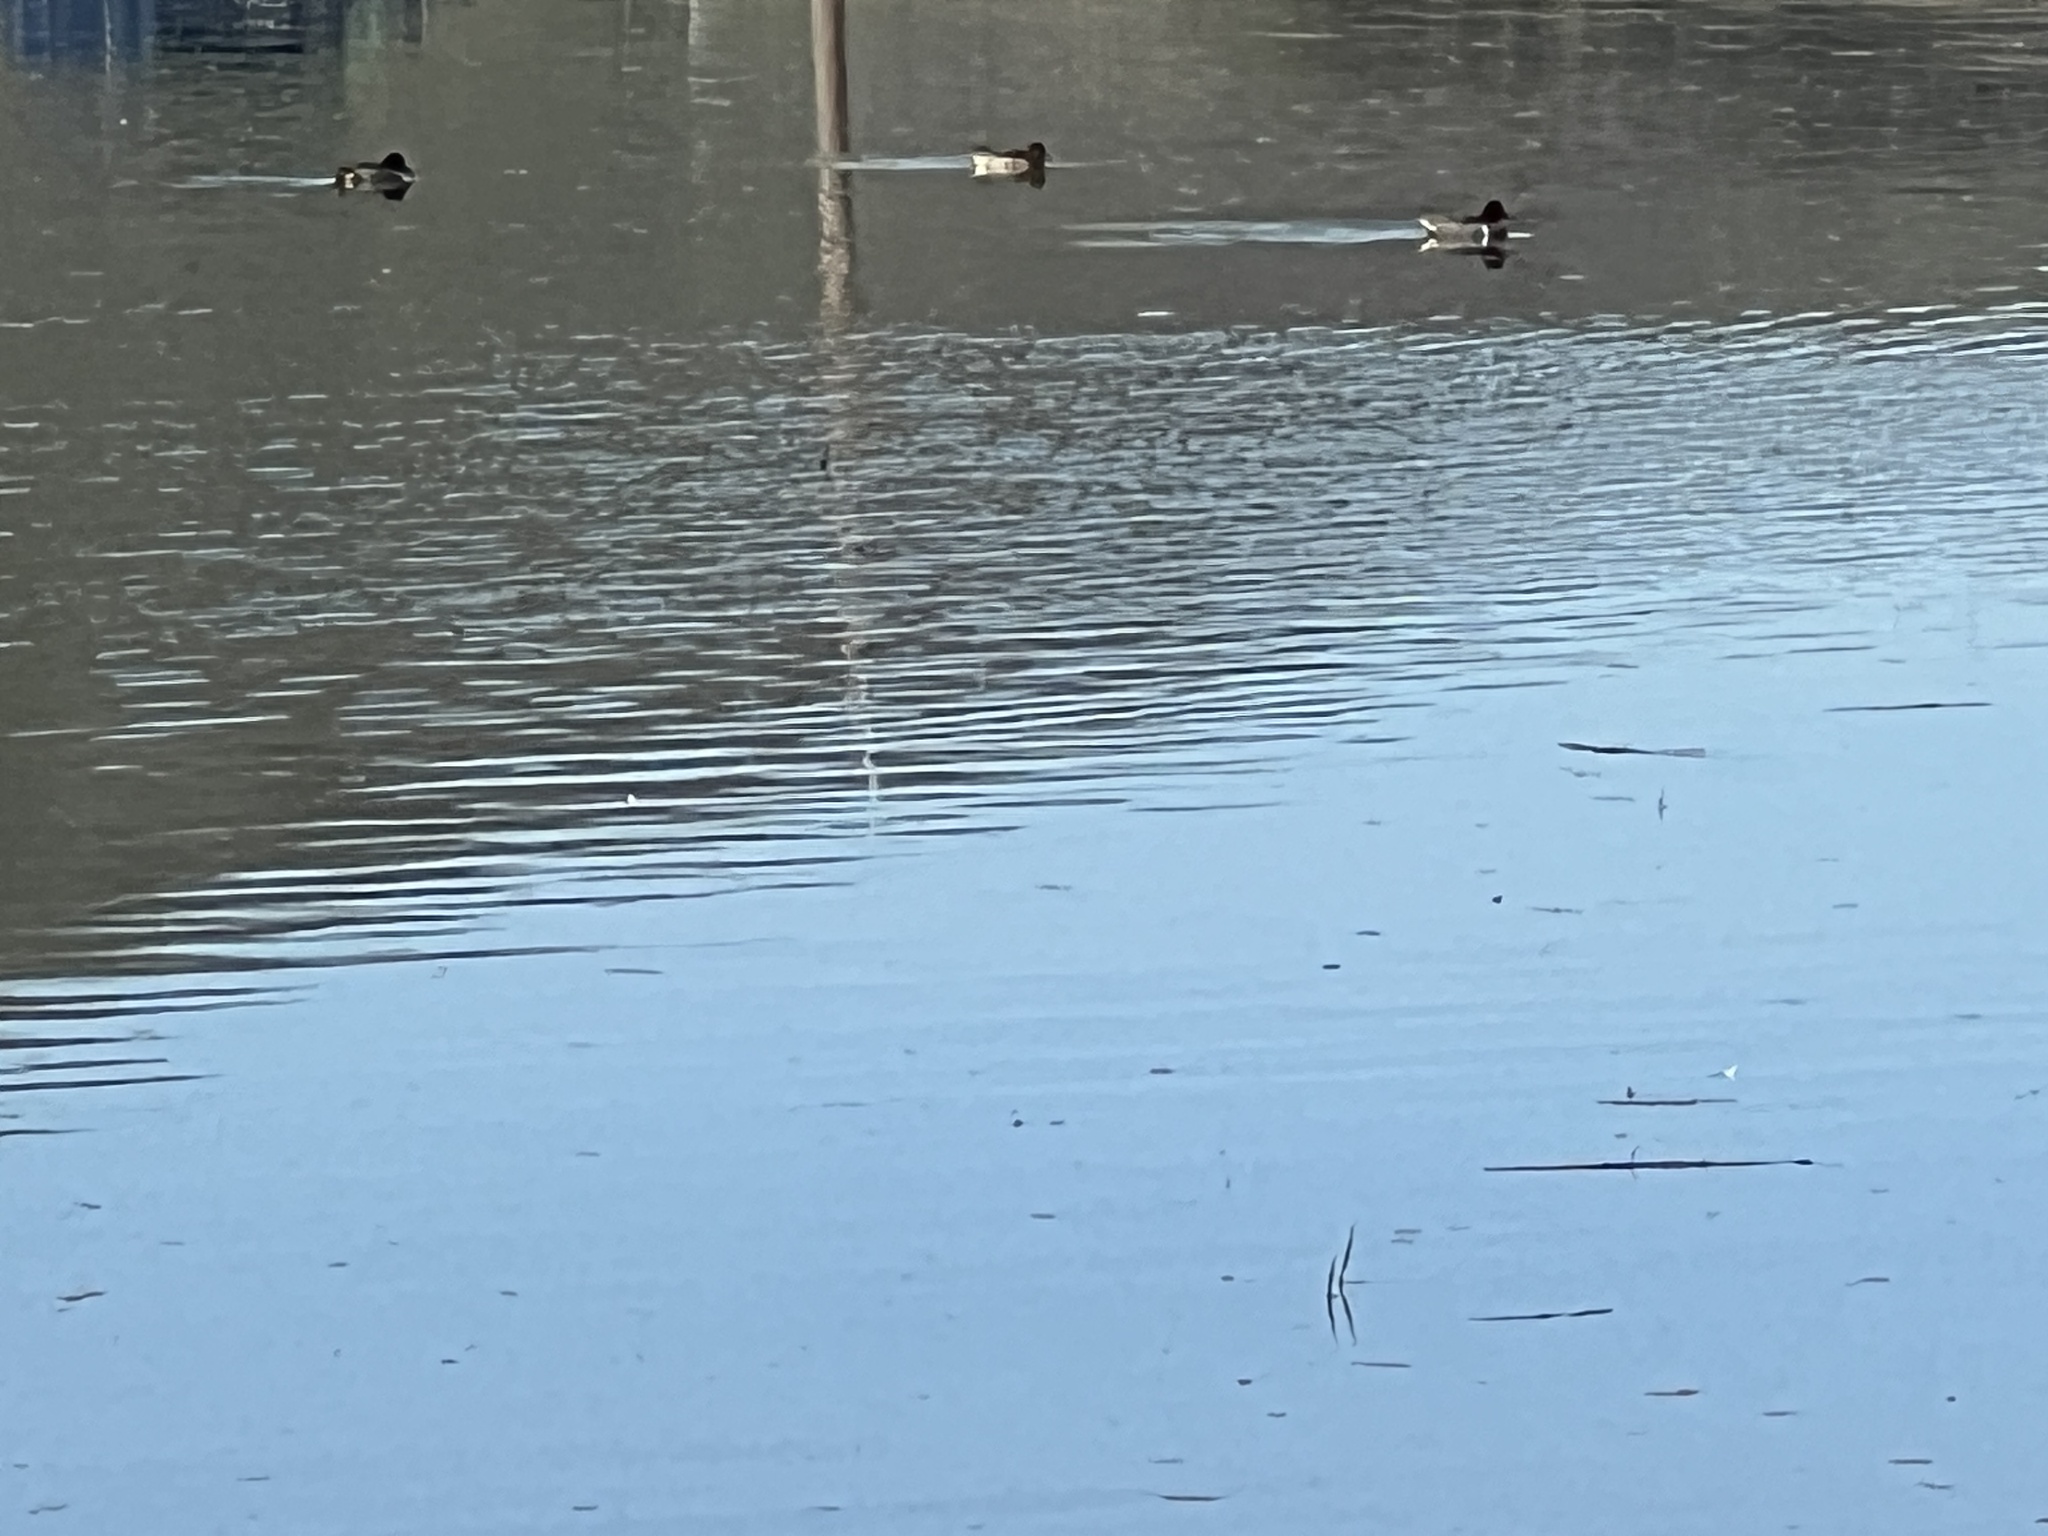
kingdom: Animalia
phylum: Chordata
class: Aves
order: Anseriformes
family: Anatidae
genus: Anas
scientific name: Anas crecca
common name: Eurasian teal
